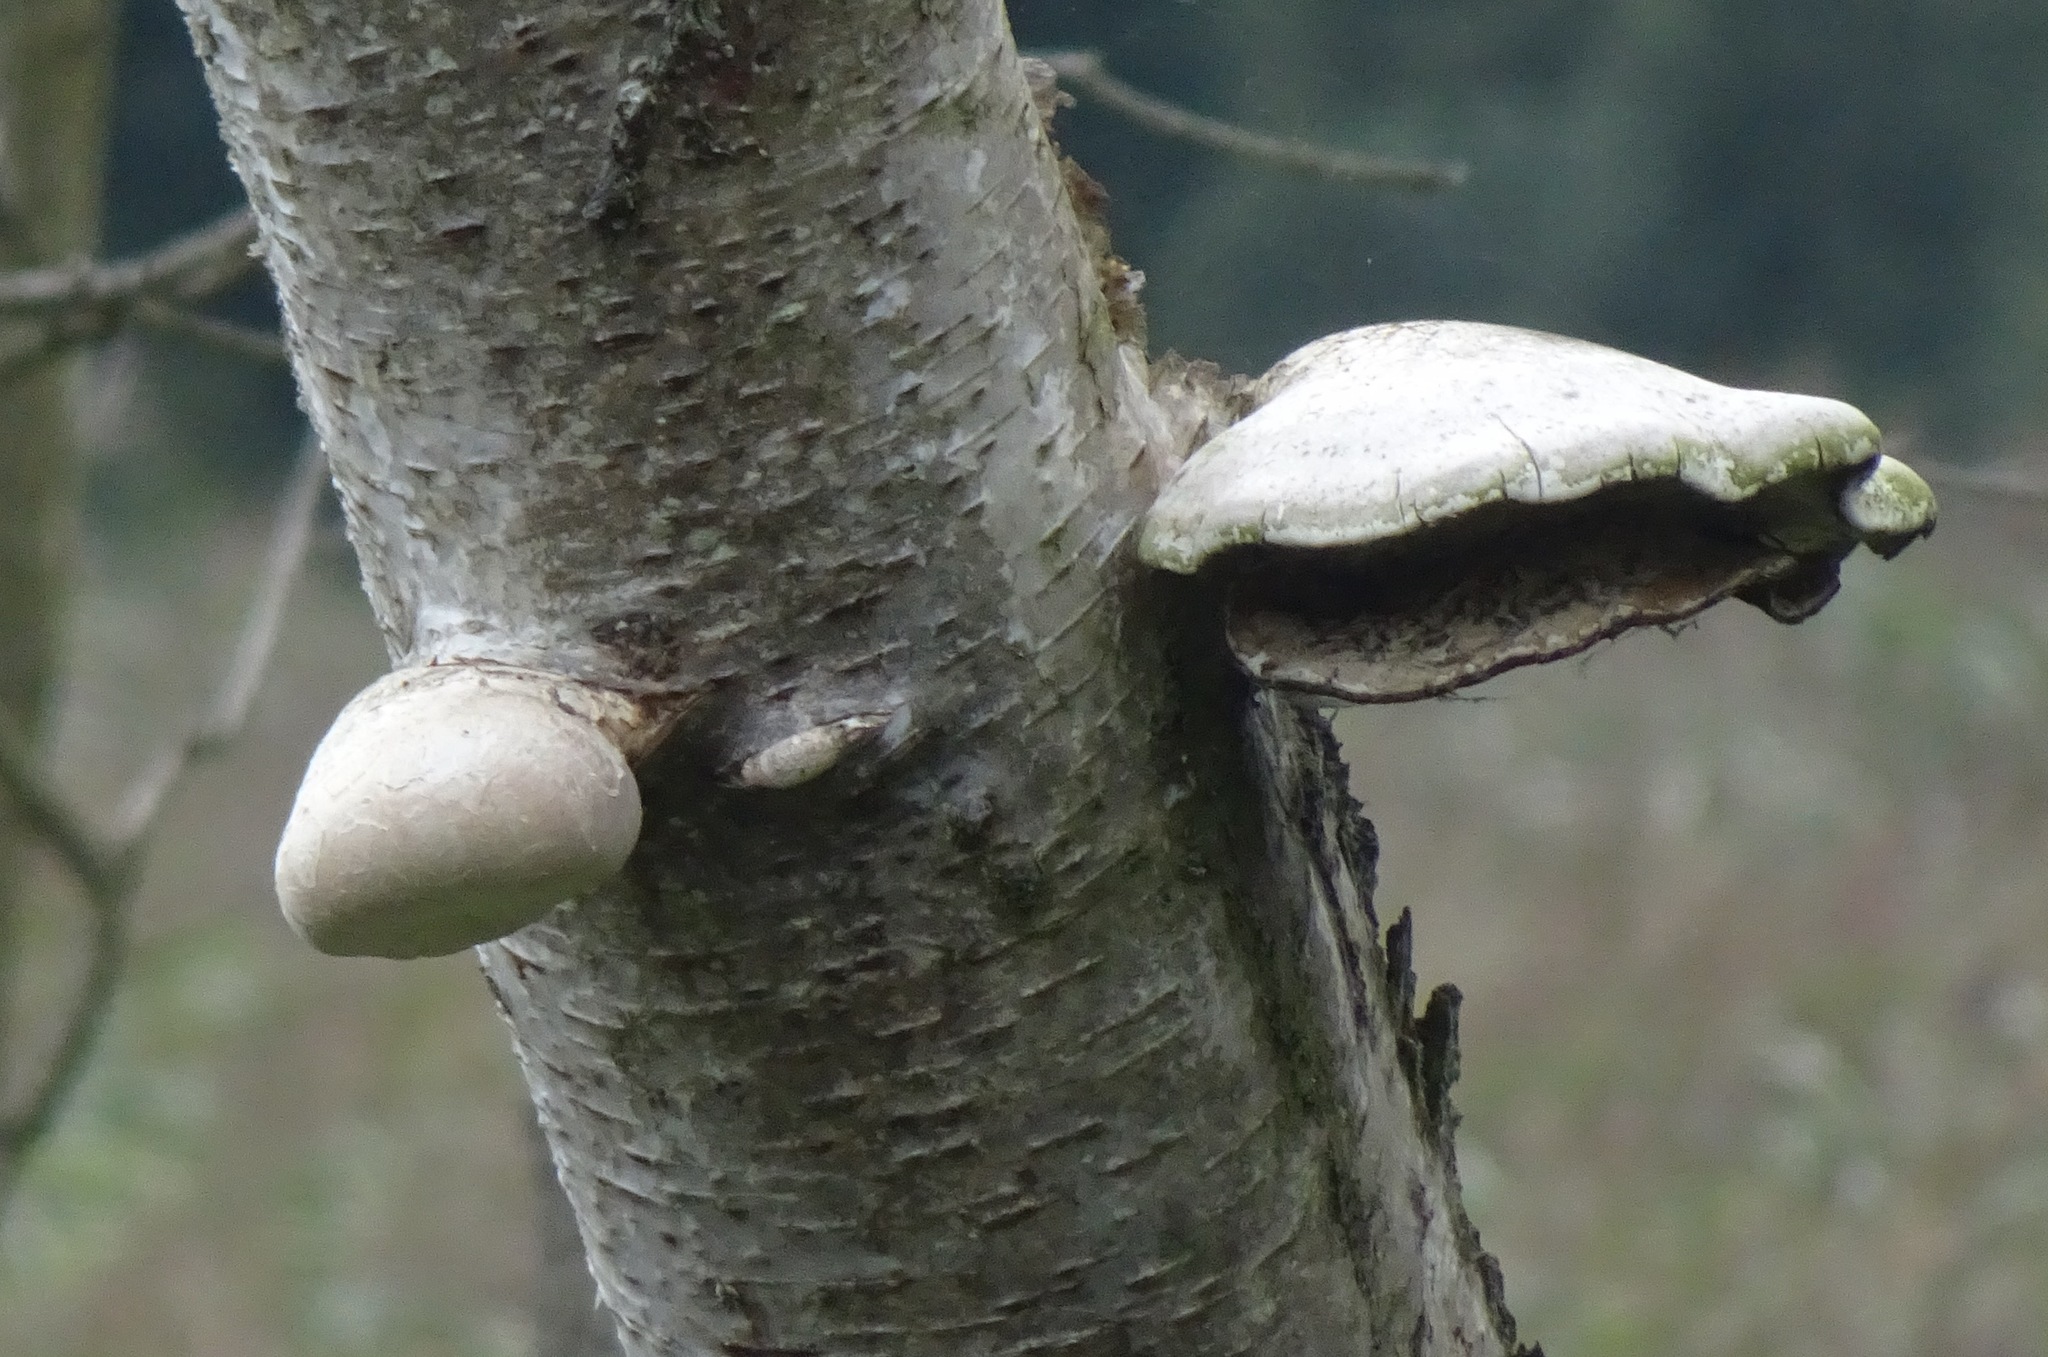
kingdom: Fungi
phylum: Basidiomycota
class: Agaricomycetes
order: Polyporales
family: Fomitopsidaceae
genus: Fomitopsis
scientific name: Fomitopsis betulina
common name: Birch polypore
